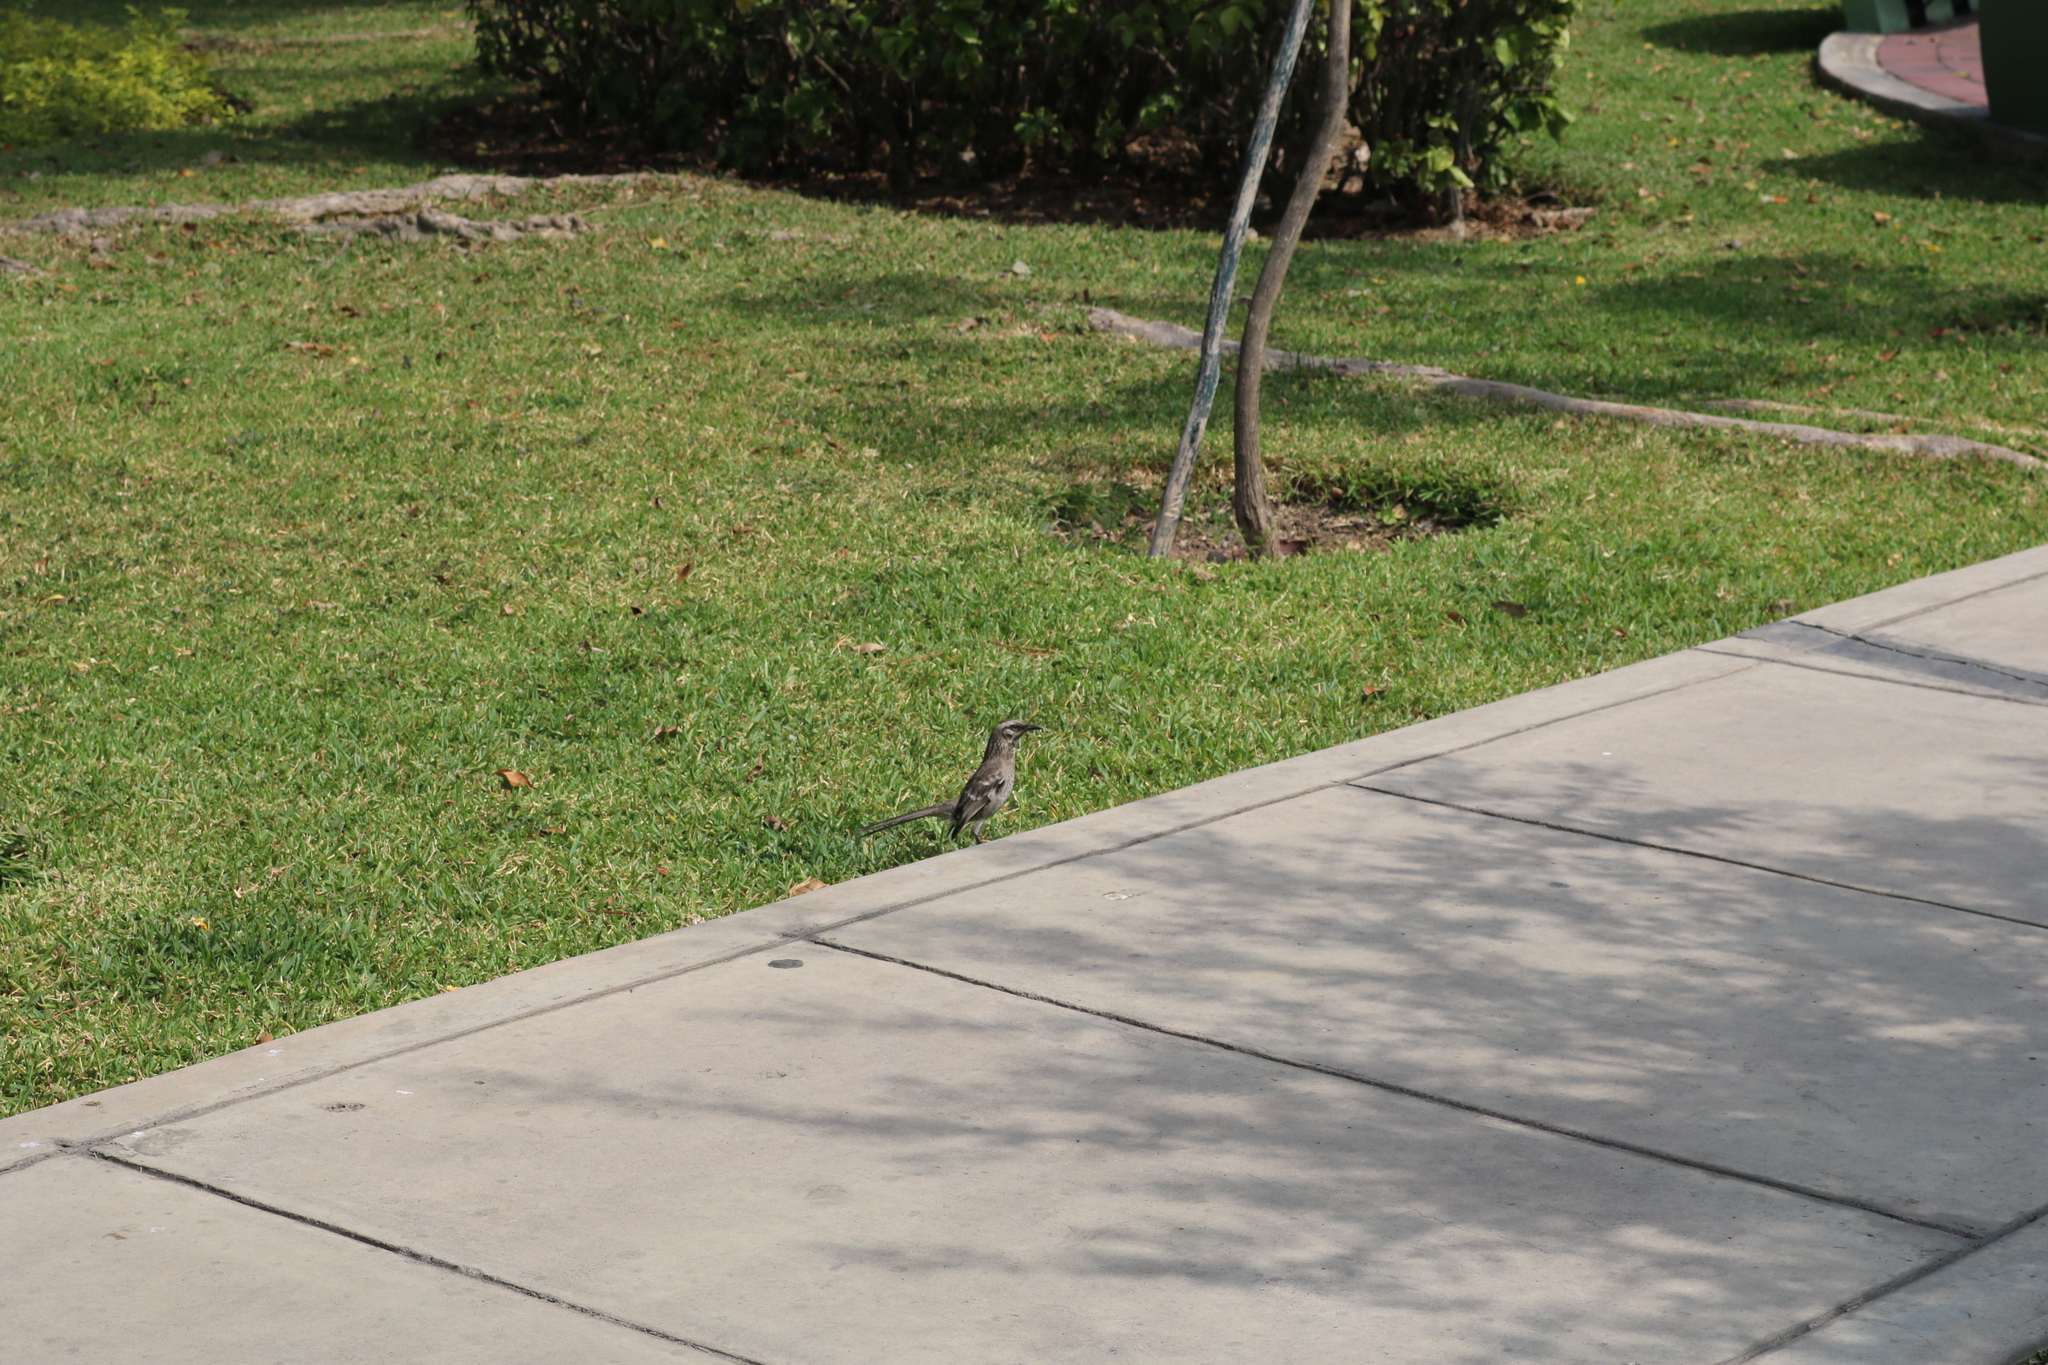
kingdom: Animalia
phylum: Chordata
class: Aves
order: Passeriformes
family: Mimidae
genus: Mimus
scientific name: Mimus longicaudatus
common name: Long-tailed mockingbird
